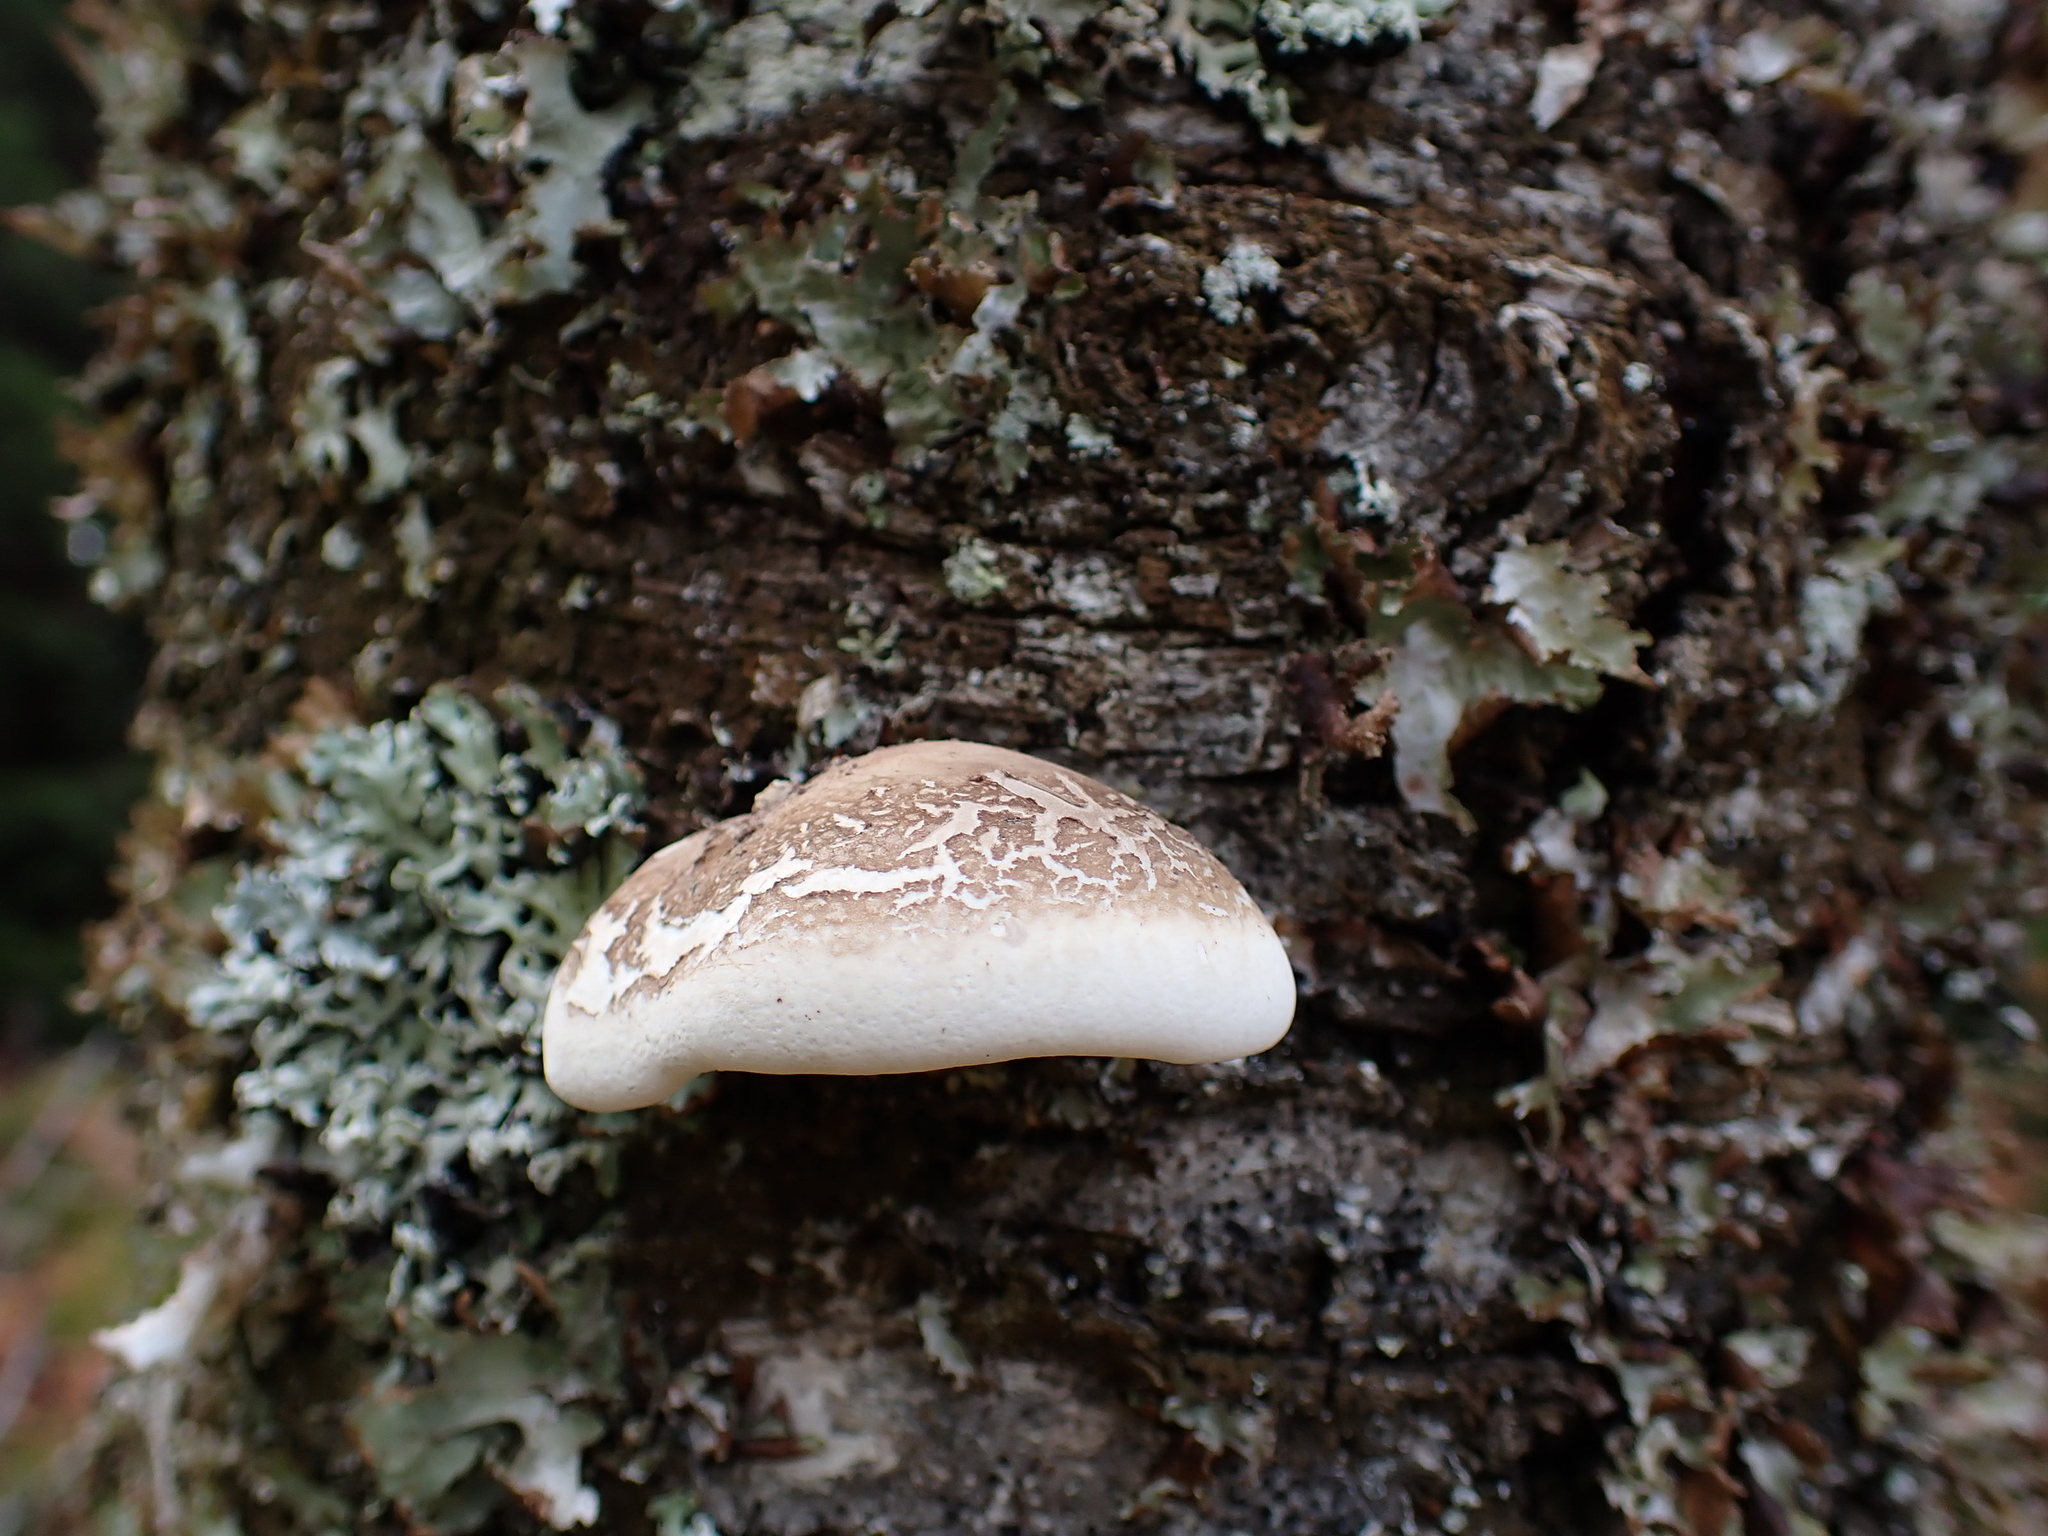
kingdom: Fungi
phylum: Basidiomycota
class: Agaricomycetes
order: Polyporales
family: Fomitopsidaceae
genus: Fomitopsis
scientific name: Fomitopsis betulina
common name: Birch polypore
